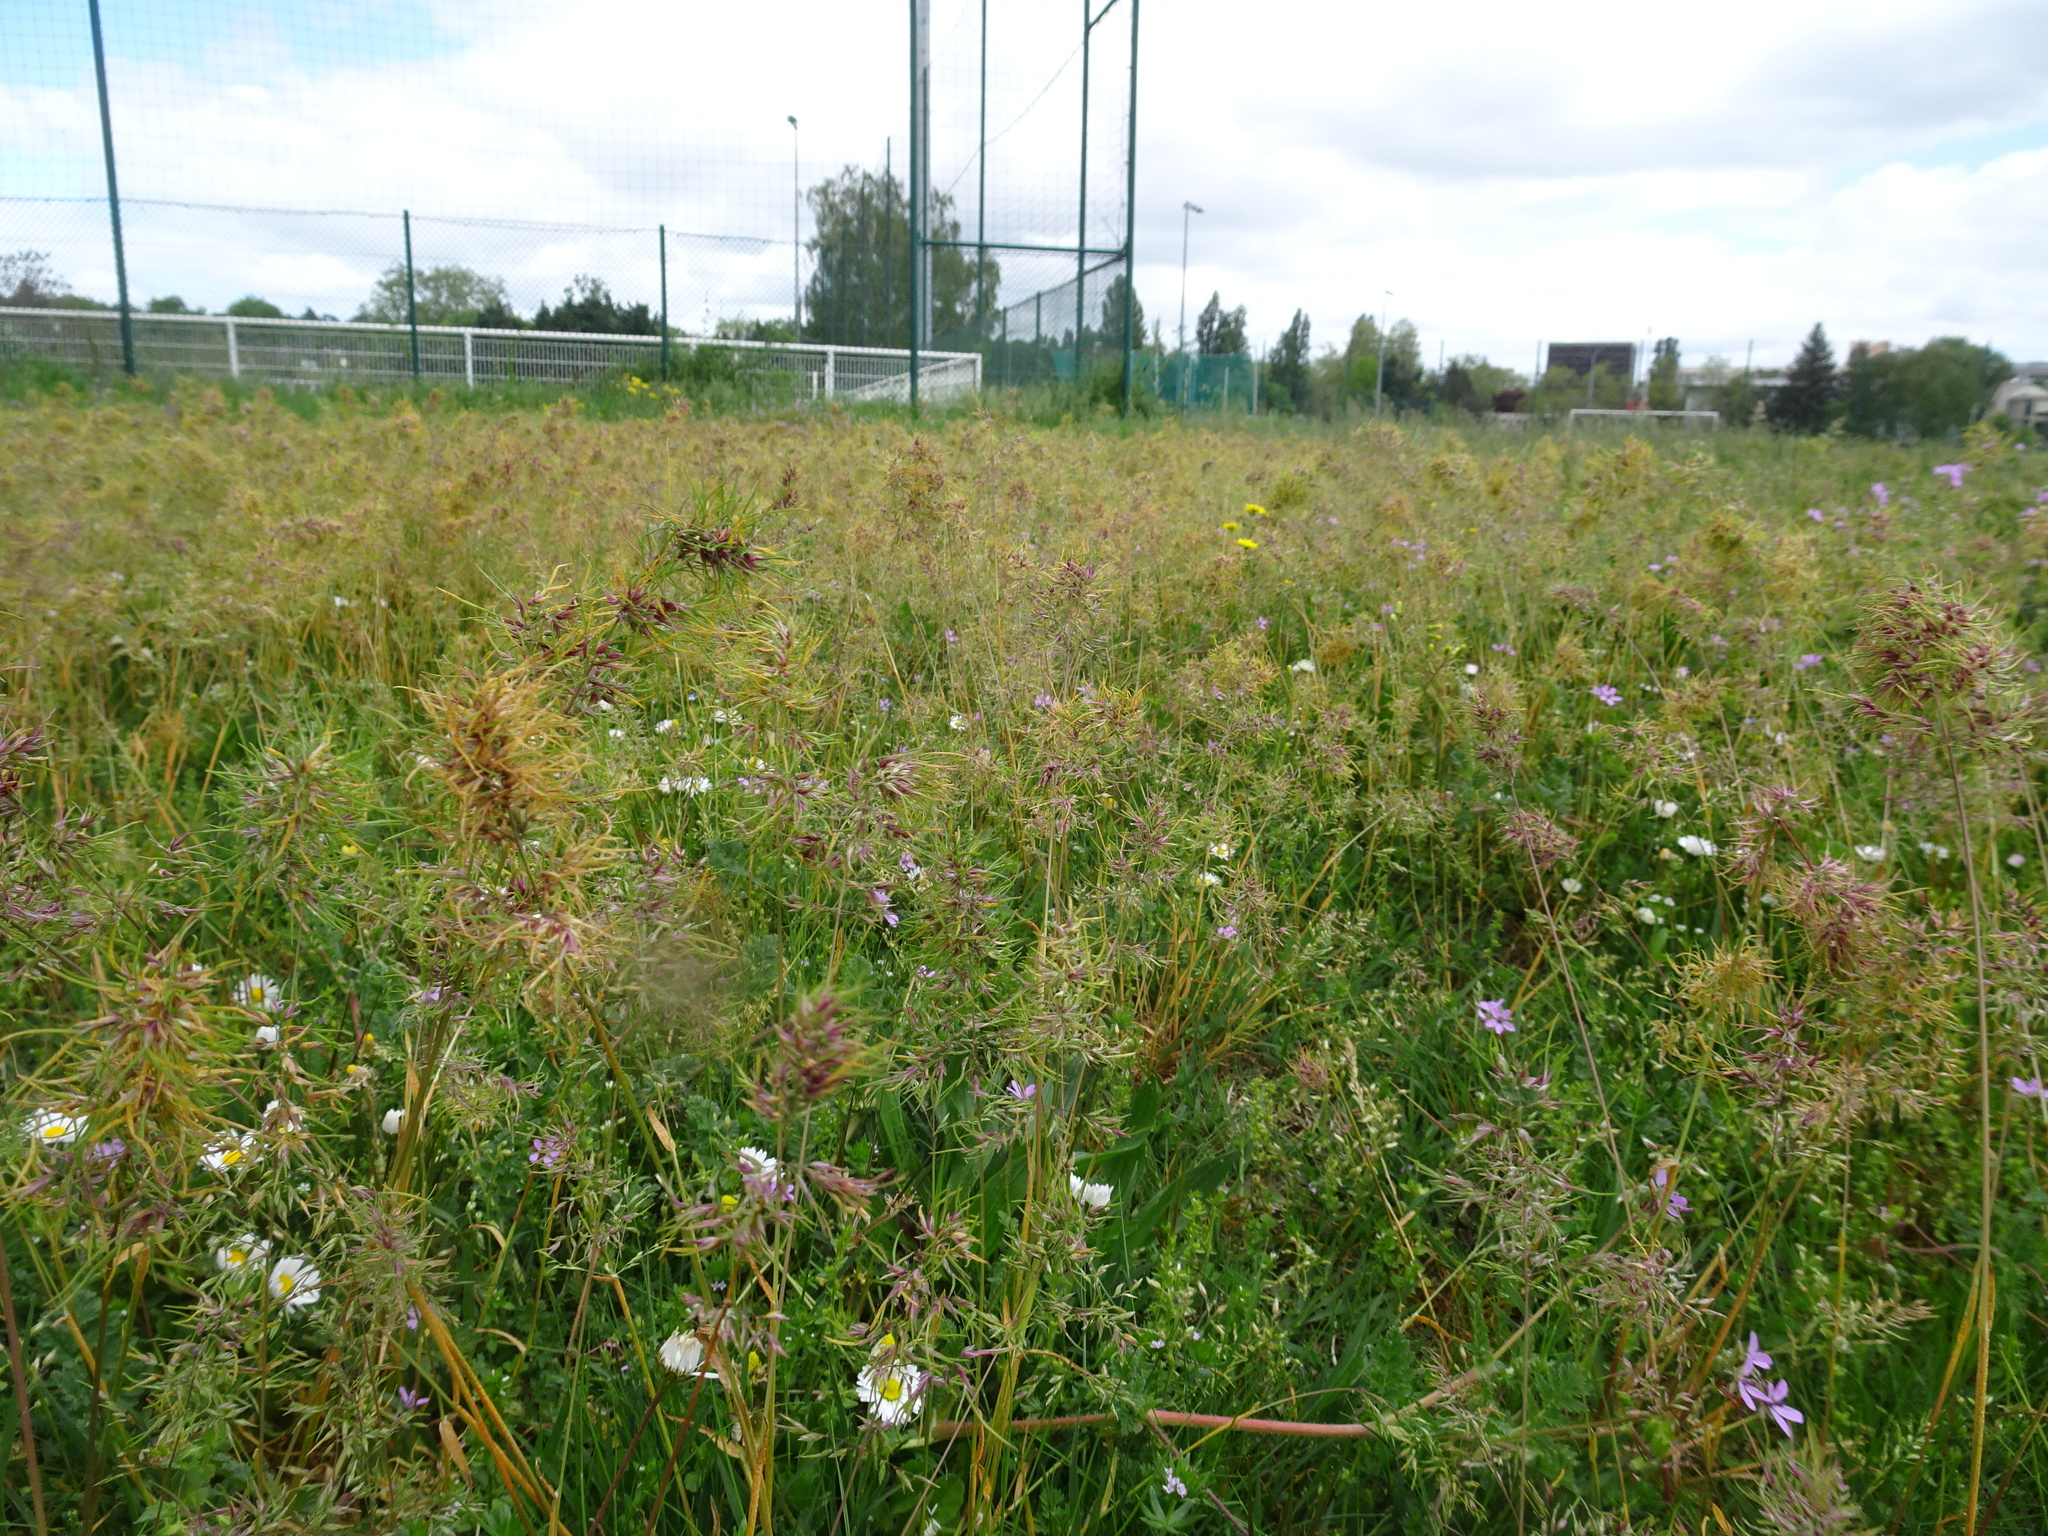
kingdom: Plantae
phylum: Tracheophyta
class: Liliopsida
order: Poales
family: Poaceae
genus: Poa
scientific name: Poa bulbosa
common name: Bulbous bluegrass
